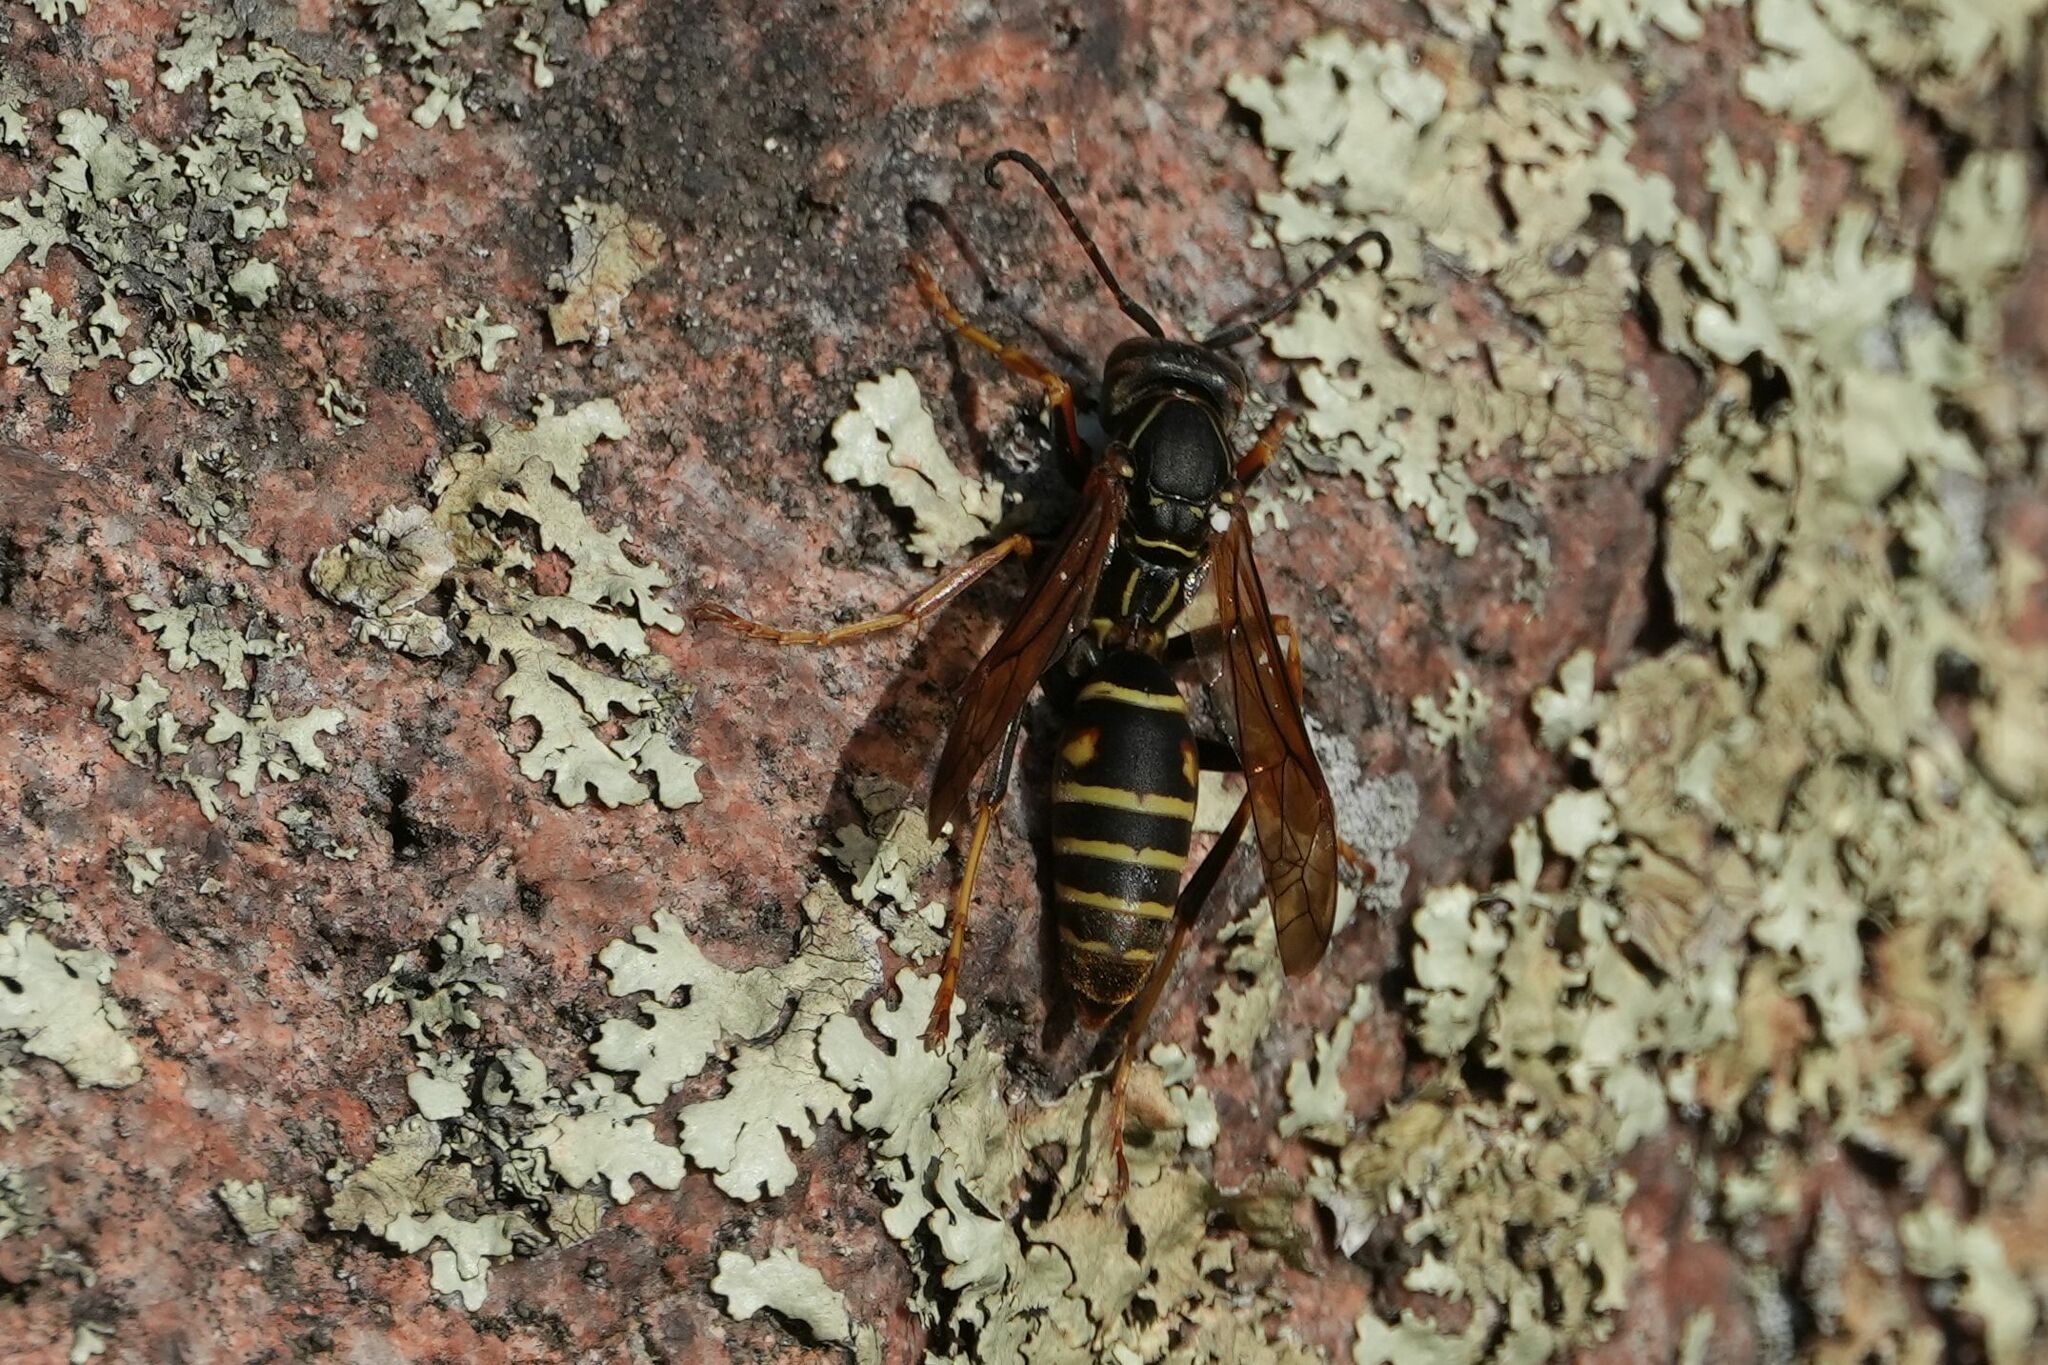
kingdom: Animalia
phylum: Arthropoda
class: Insecta
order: Hymenoptera
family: Eumenidae
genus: Polistes
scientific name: Polistes fuscatus
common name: Dark paper wasp
